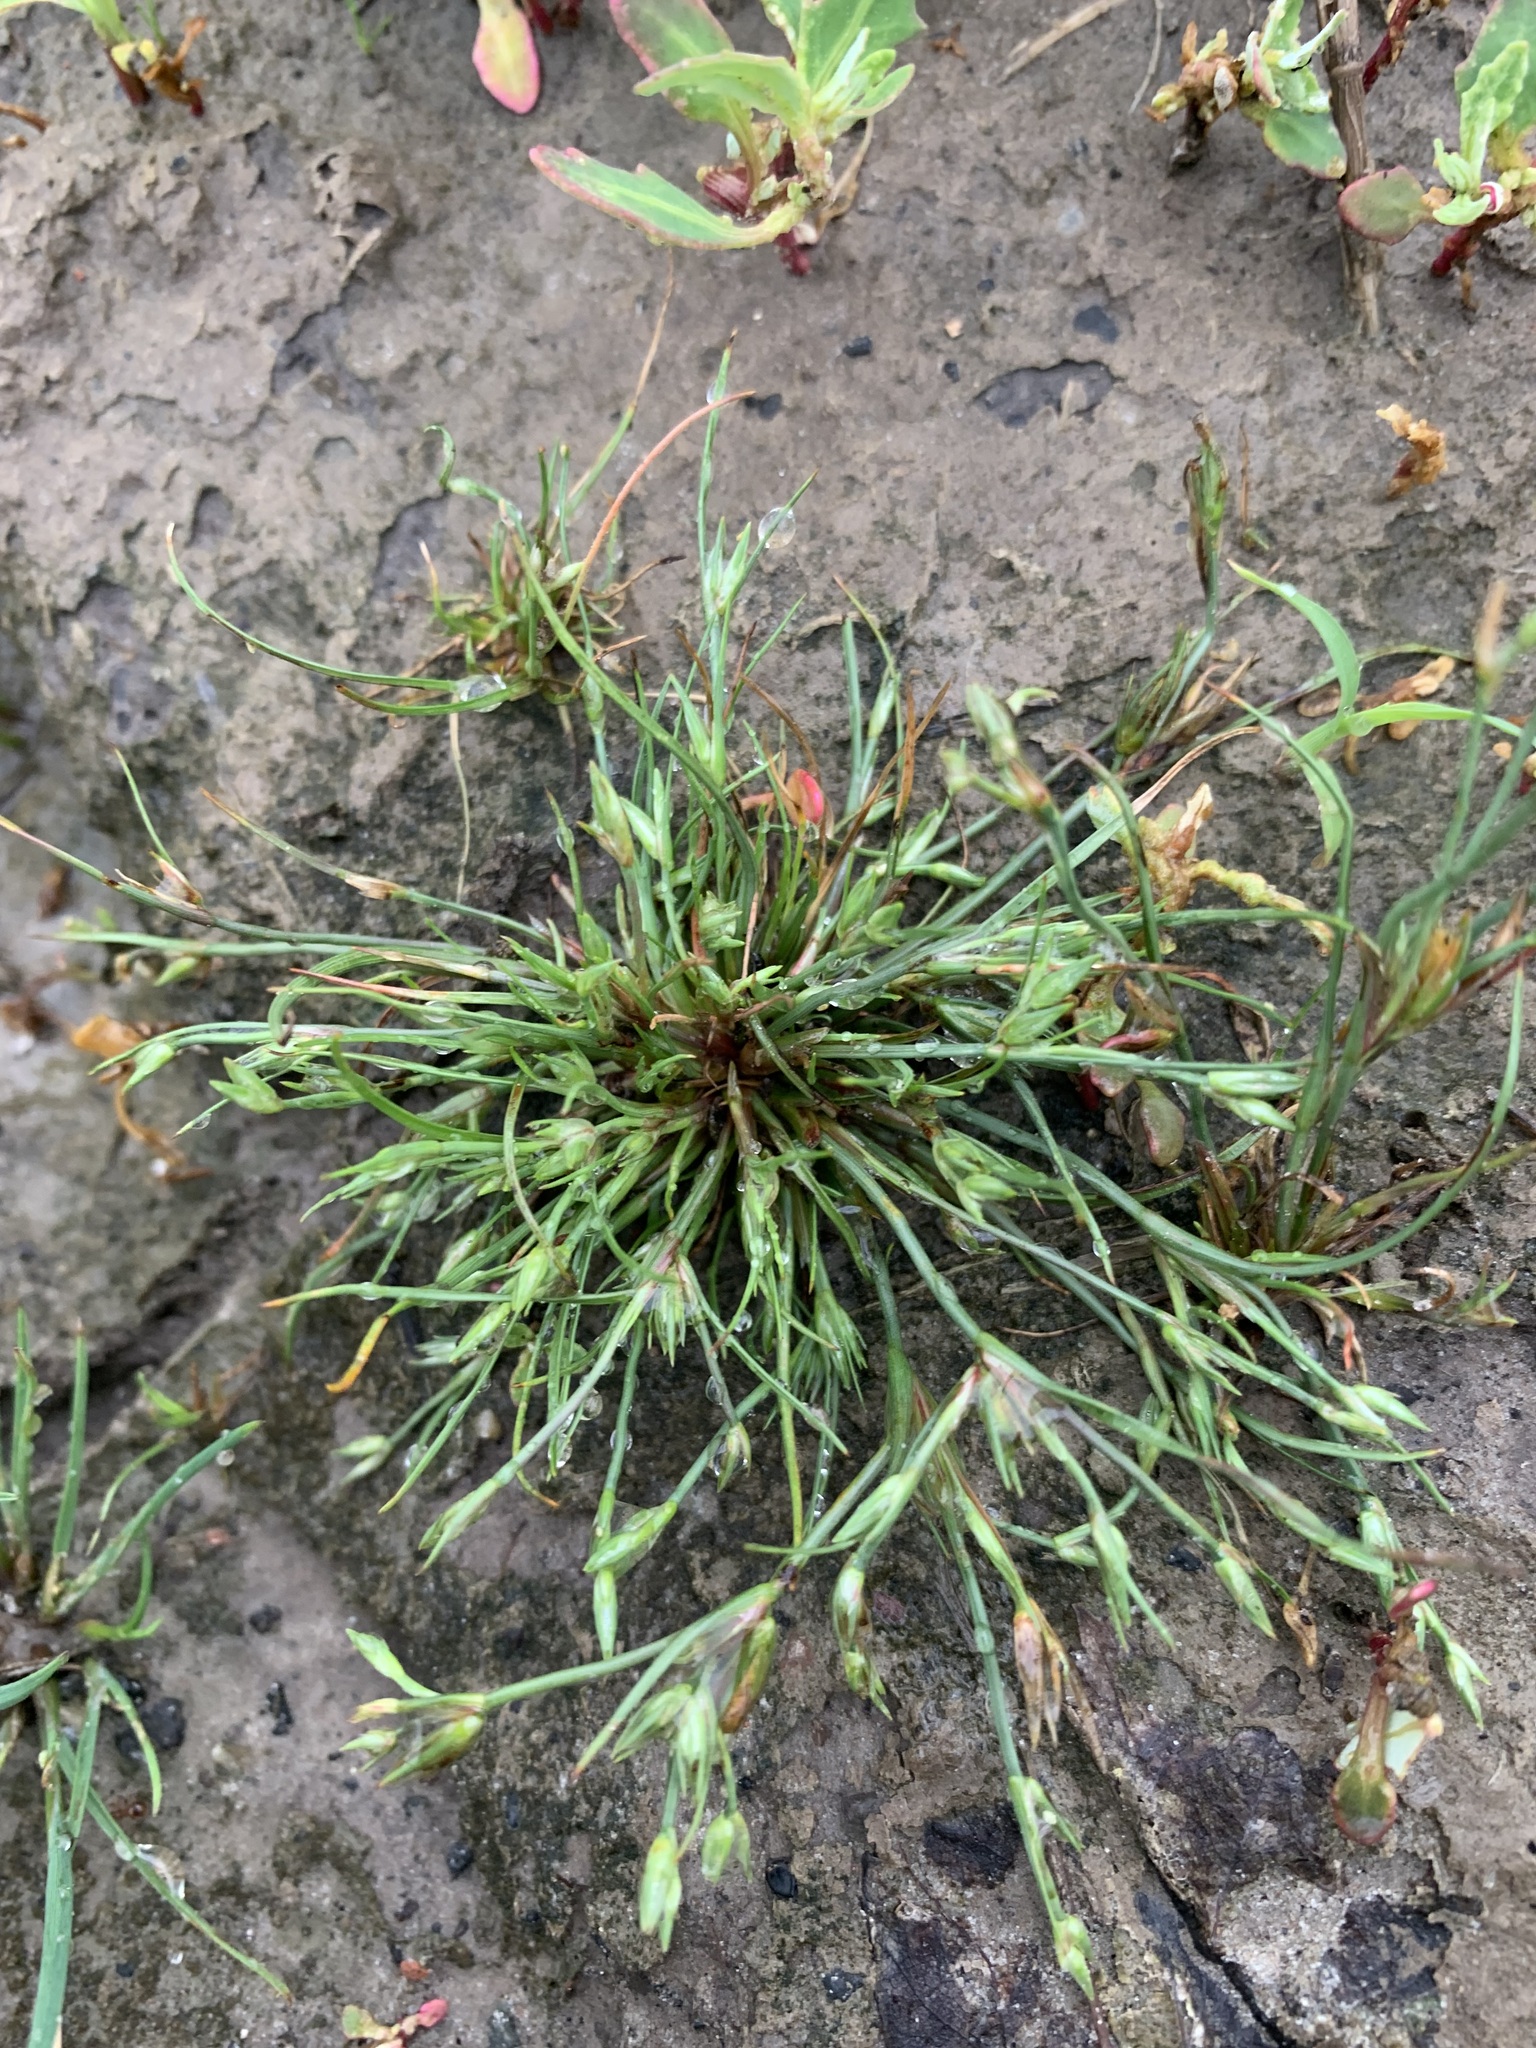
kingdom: Plantae
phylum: Tracheophyta
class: Liliopsida
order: Poales
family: Juncaceae
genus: Juncus
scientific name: Juncus bufonius
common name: Toad rush
